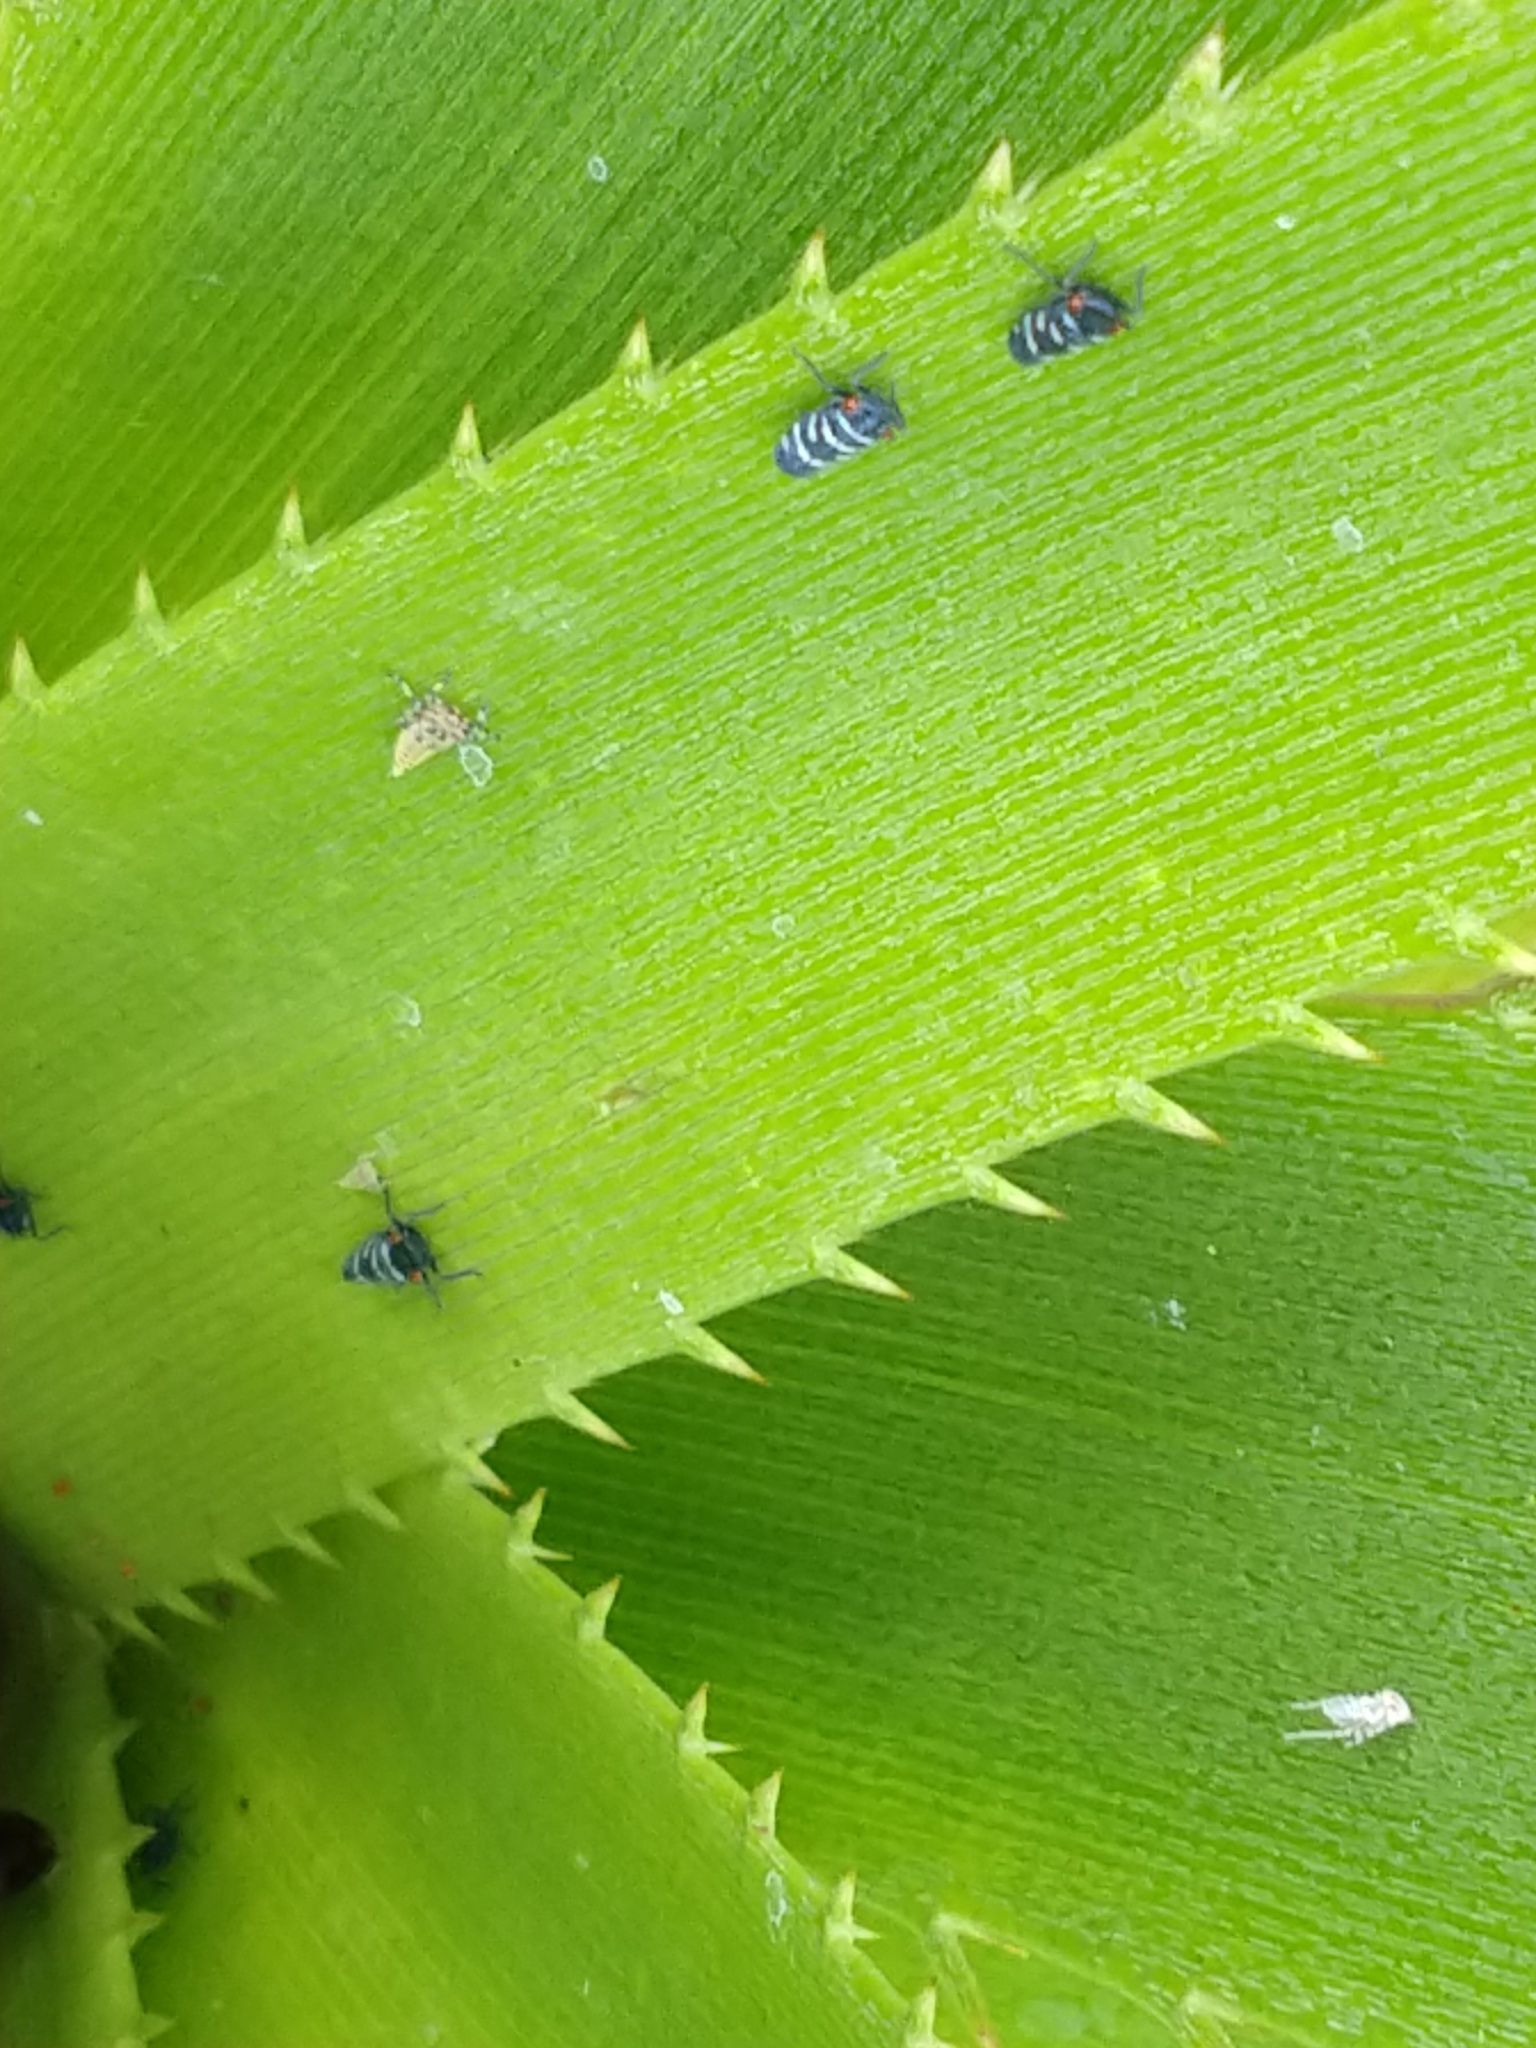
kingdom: Animalia
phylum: Arthropoda
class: Insecta
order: Hemiptera
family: Cicadellidae
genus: Balacha
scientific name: Balacha melanocephala
